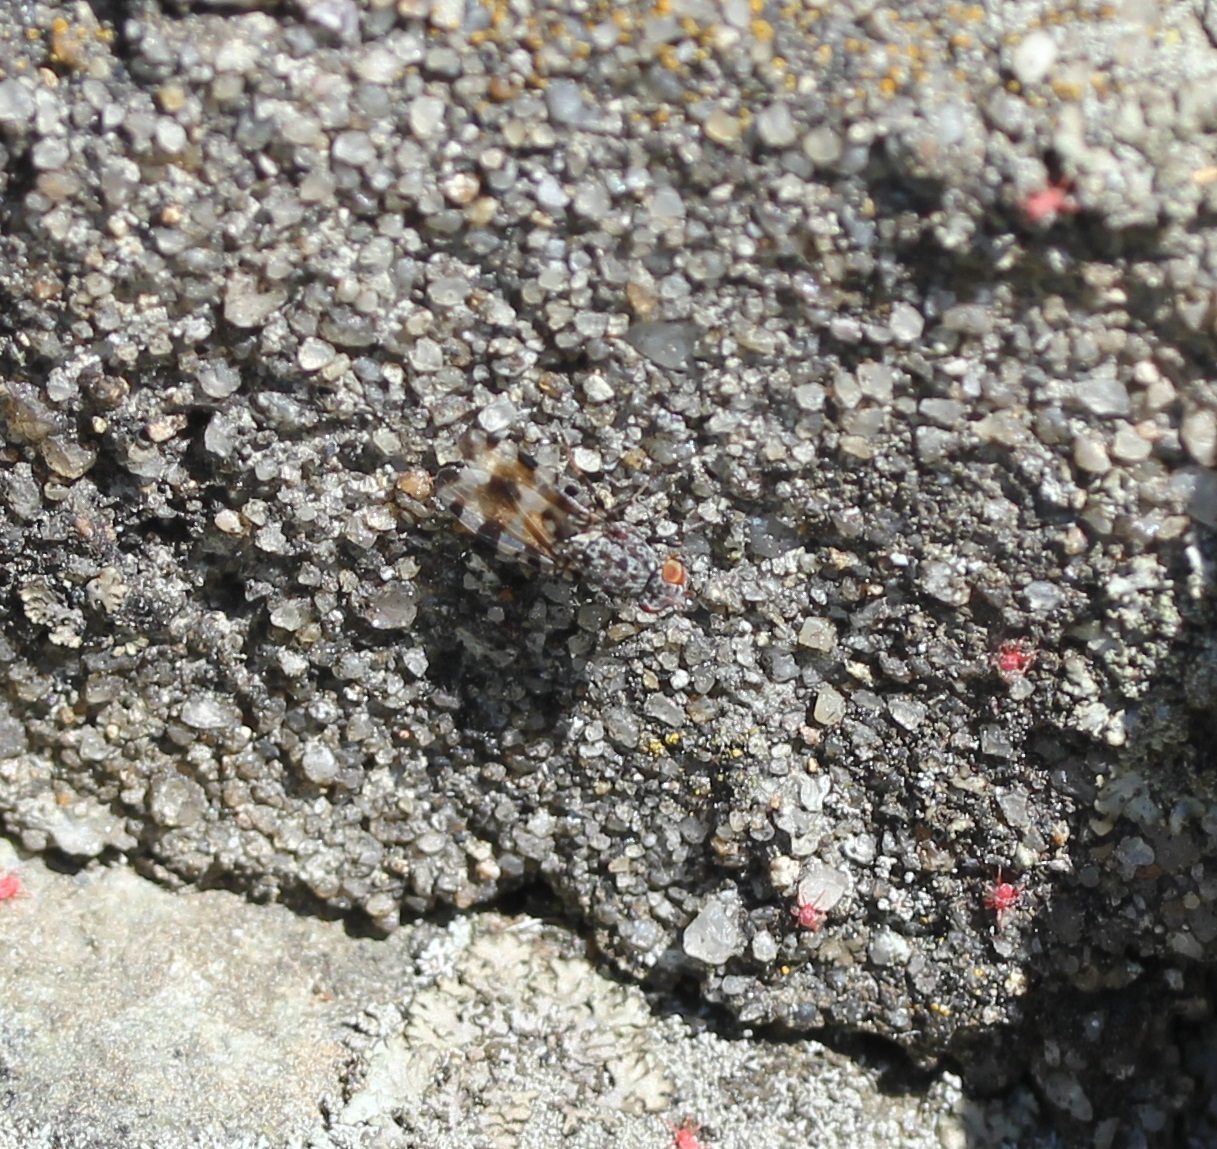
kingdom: Animalia
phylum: Arthropoda
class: Insecta
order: Diptera
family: Ulidiidae
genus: Pseudotephritis
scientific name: Pseudotephritis vau
